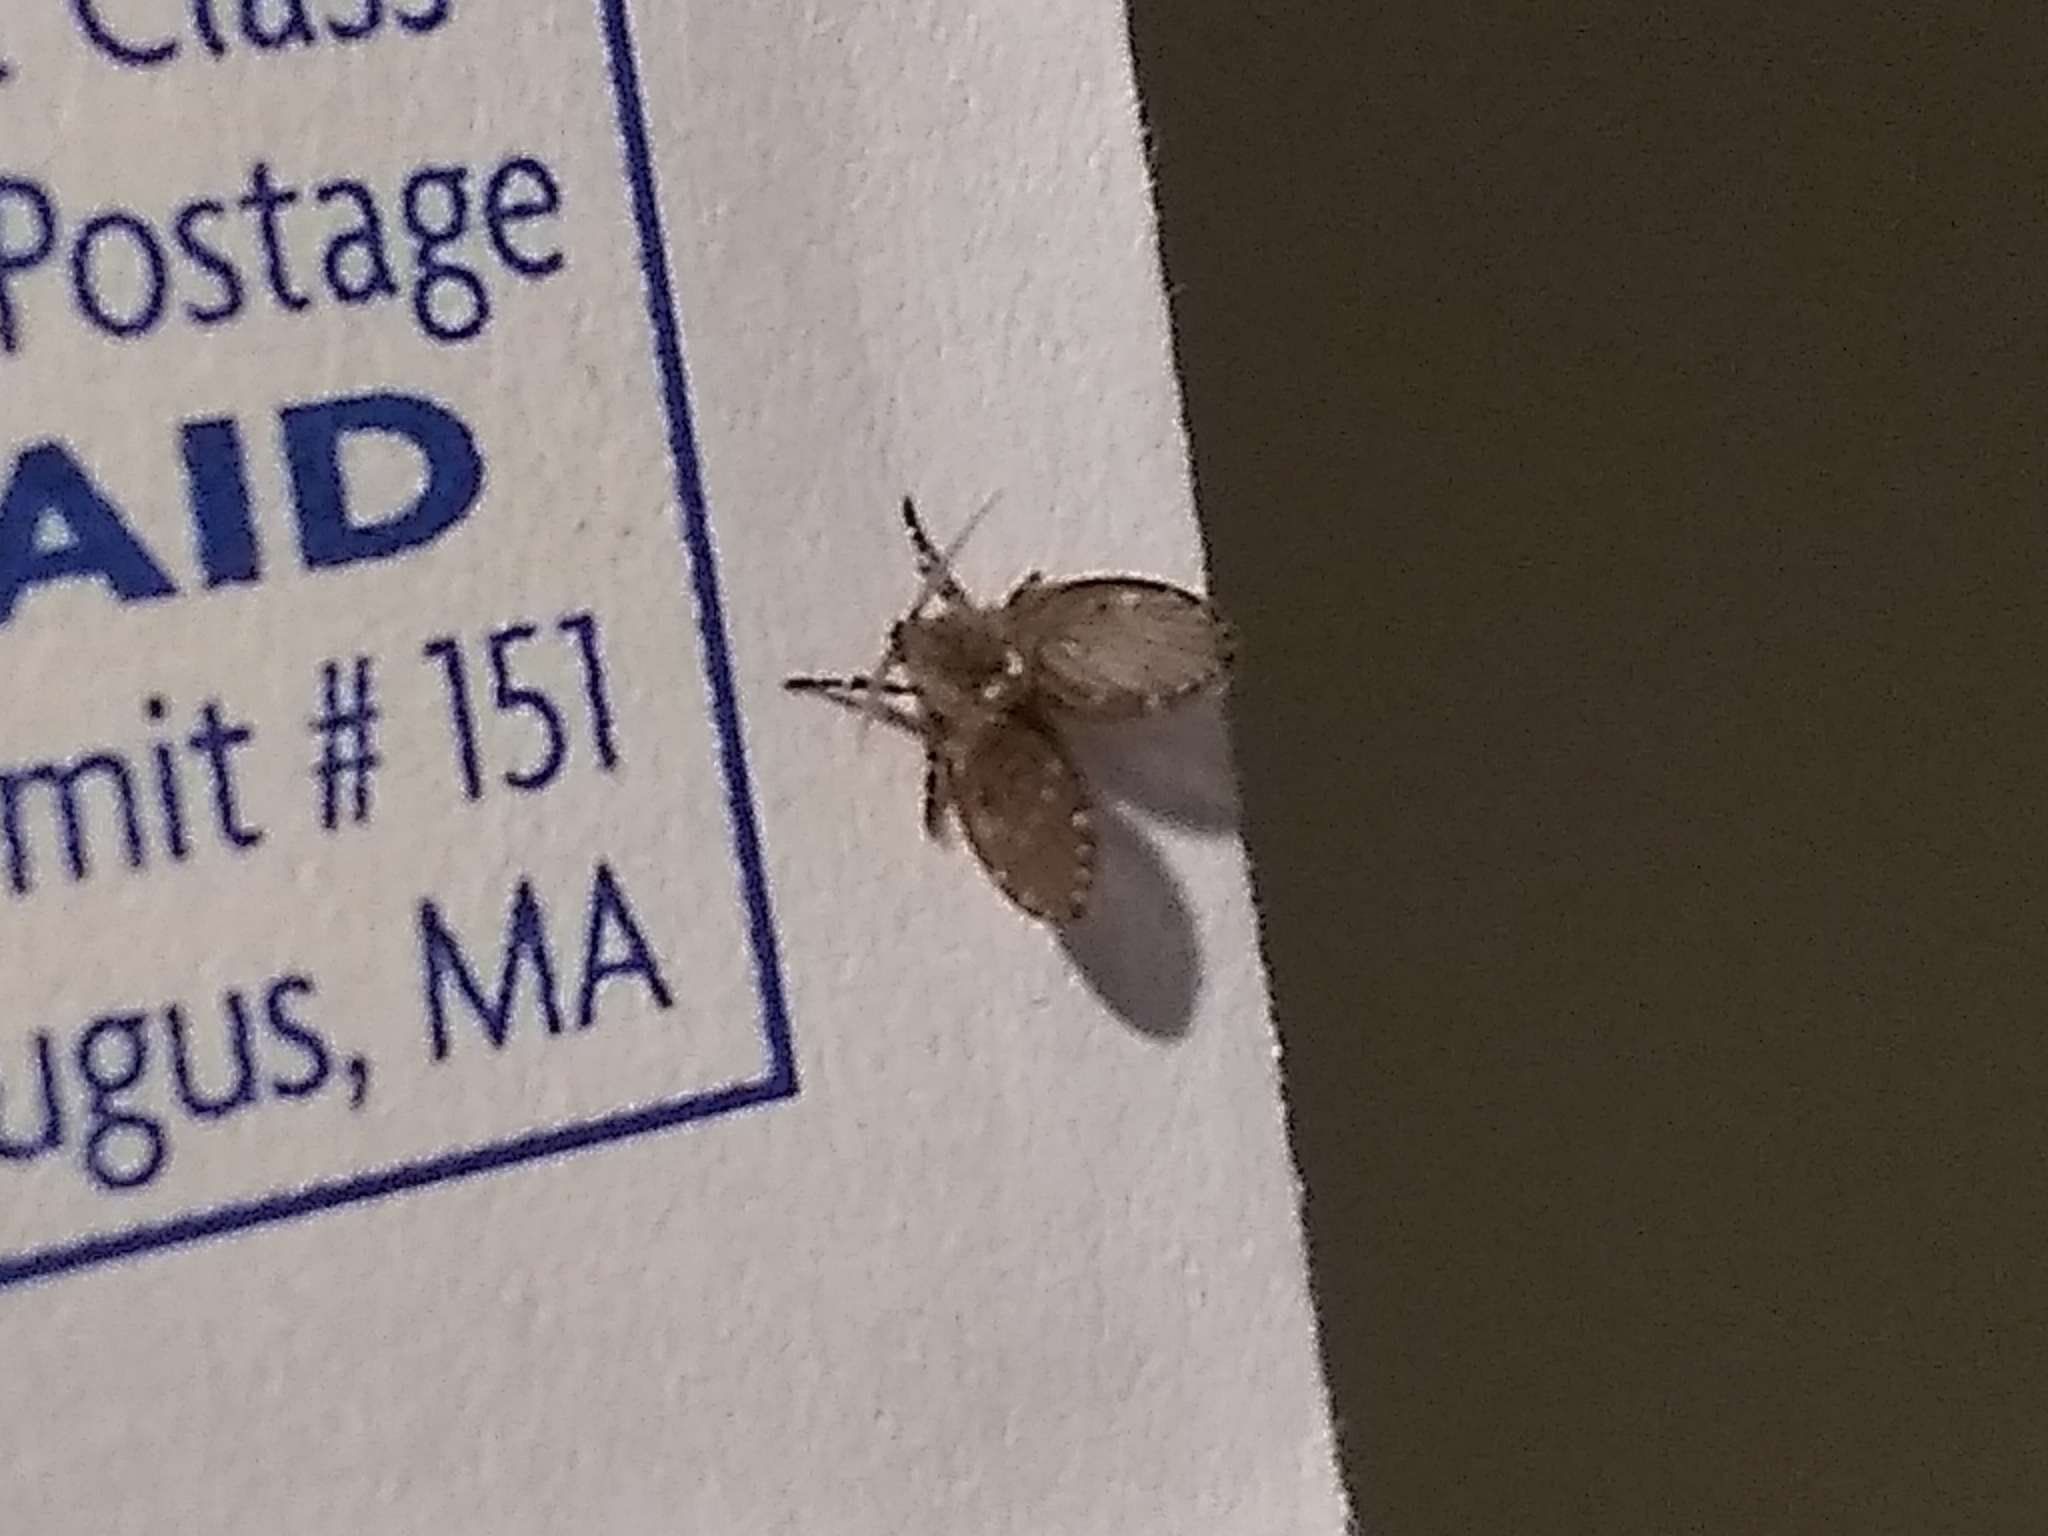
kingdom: Animalia
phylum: Arthropoda
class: Insecta
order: Diptera
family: Psychodidae
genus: Clogmia
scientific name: Clogmia albipunctatus
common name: White-spotted moth fly
